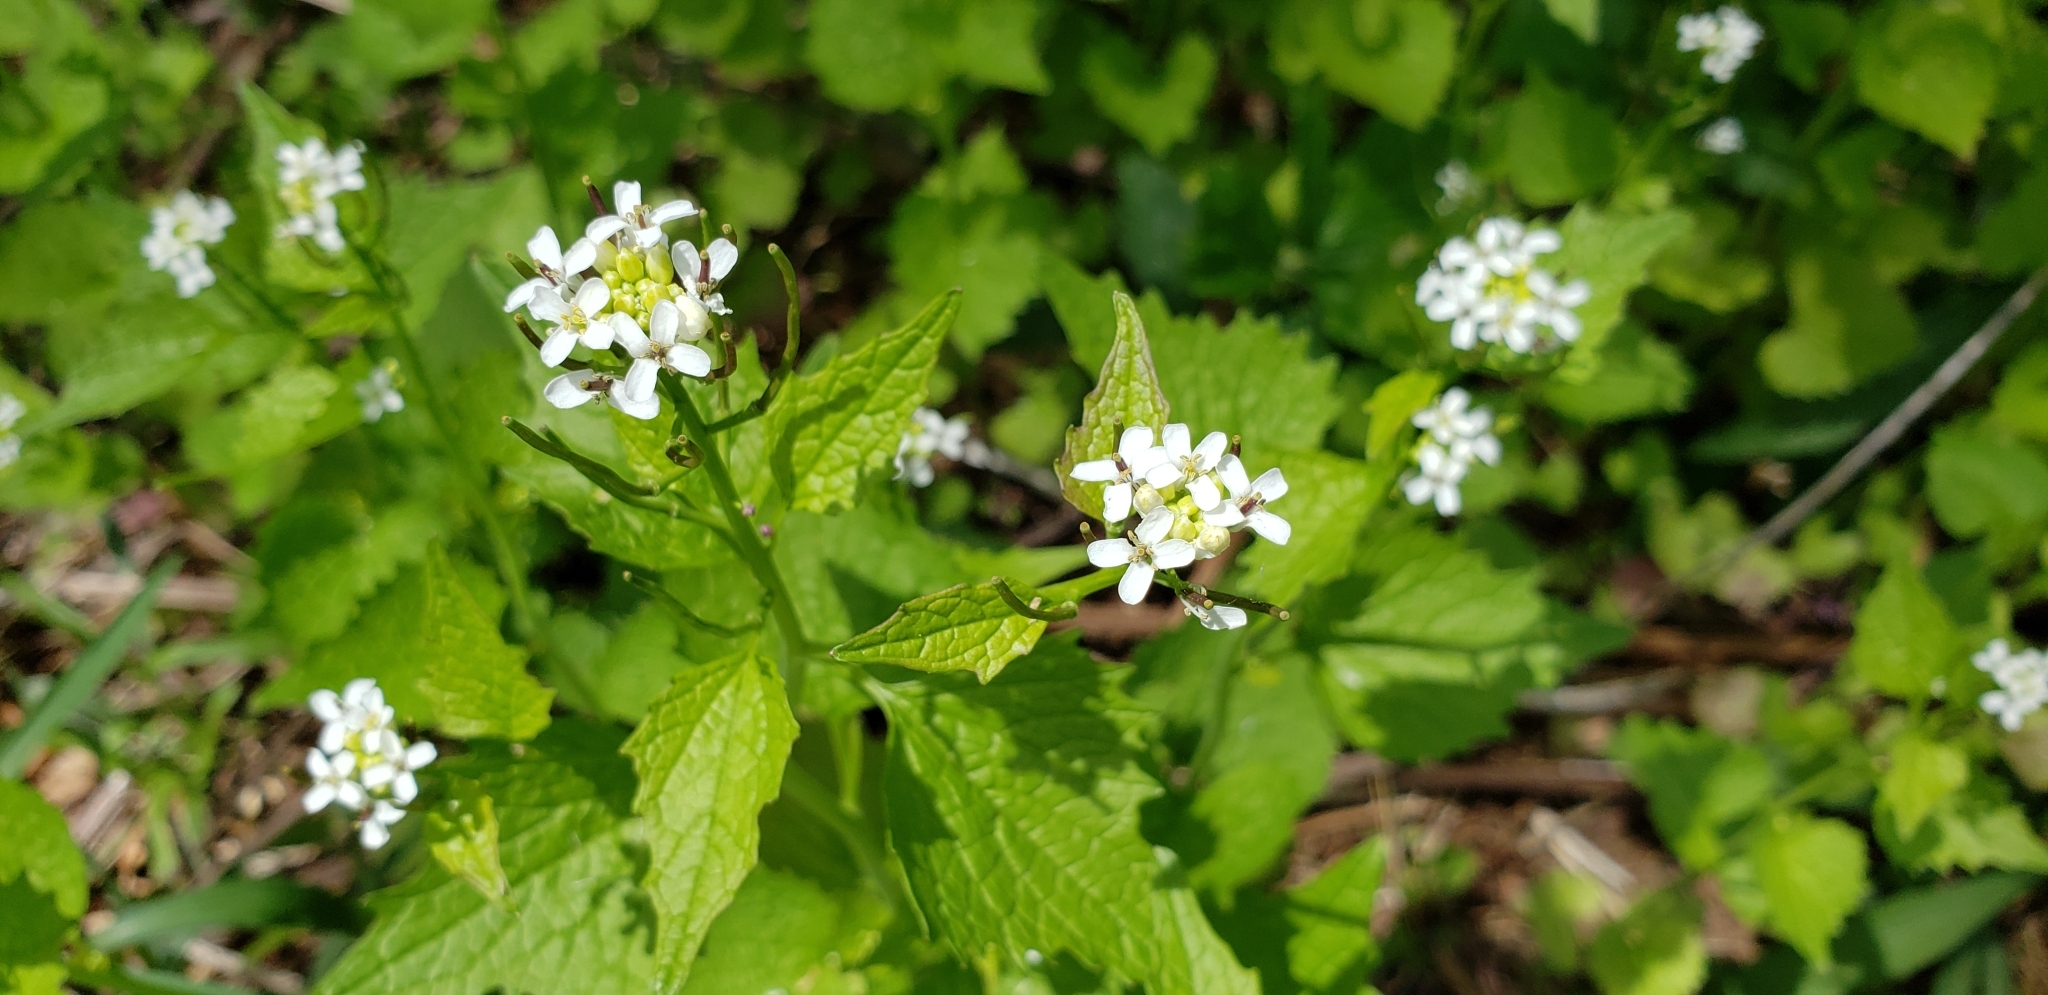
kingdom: Plantae
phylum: Tracheophyta
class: Magnoliopsida
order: Brassicales
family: Brassicaceae
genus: Alliaria
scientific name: Alliaria petiolata
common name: Garlic mustard
